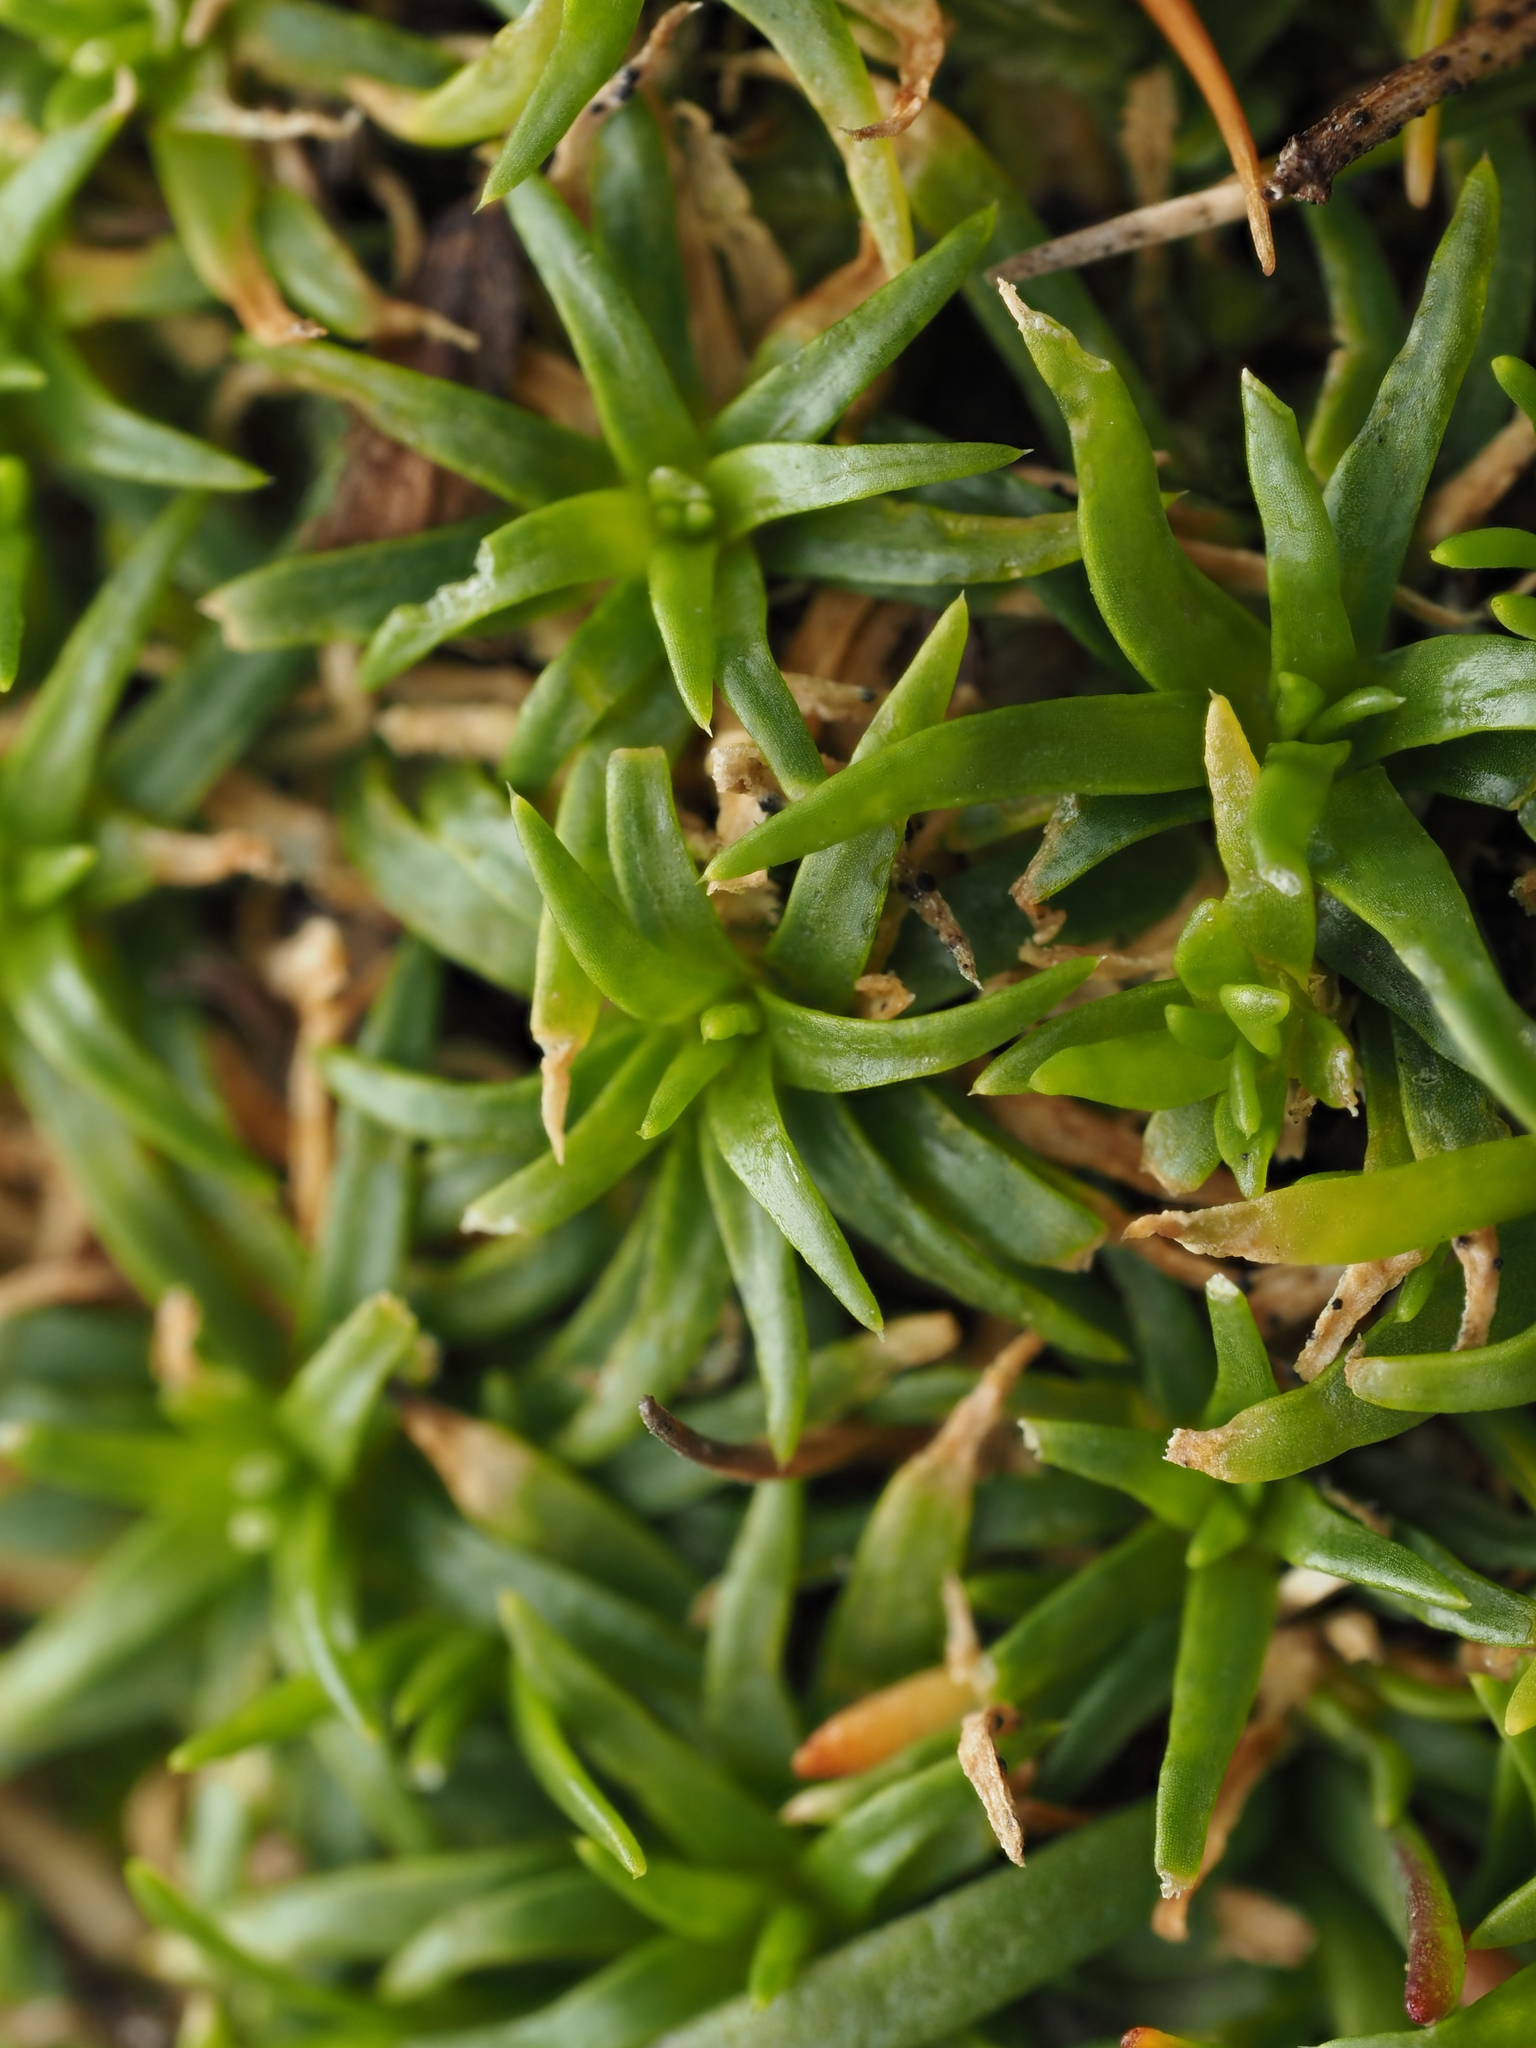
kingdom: Plantae
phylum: Tracheophyta
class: Magnoliopsida
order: Caryophyllales
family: Caryophyllaceae
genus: Colobanthus
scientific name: Colobanthus muelleri
